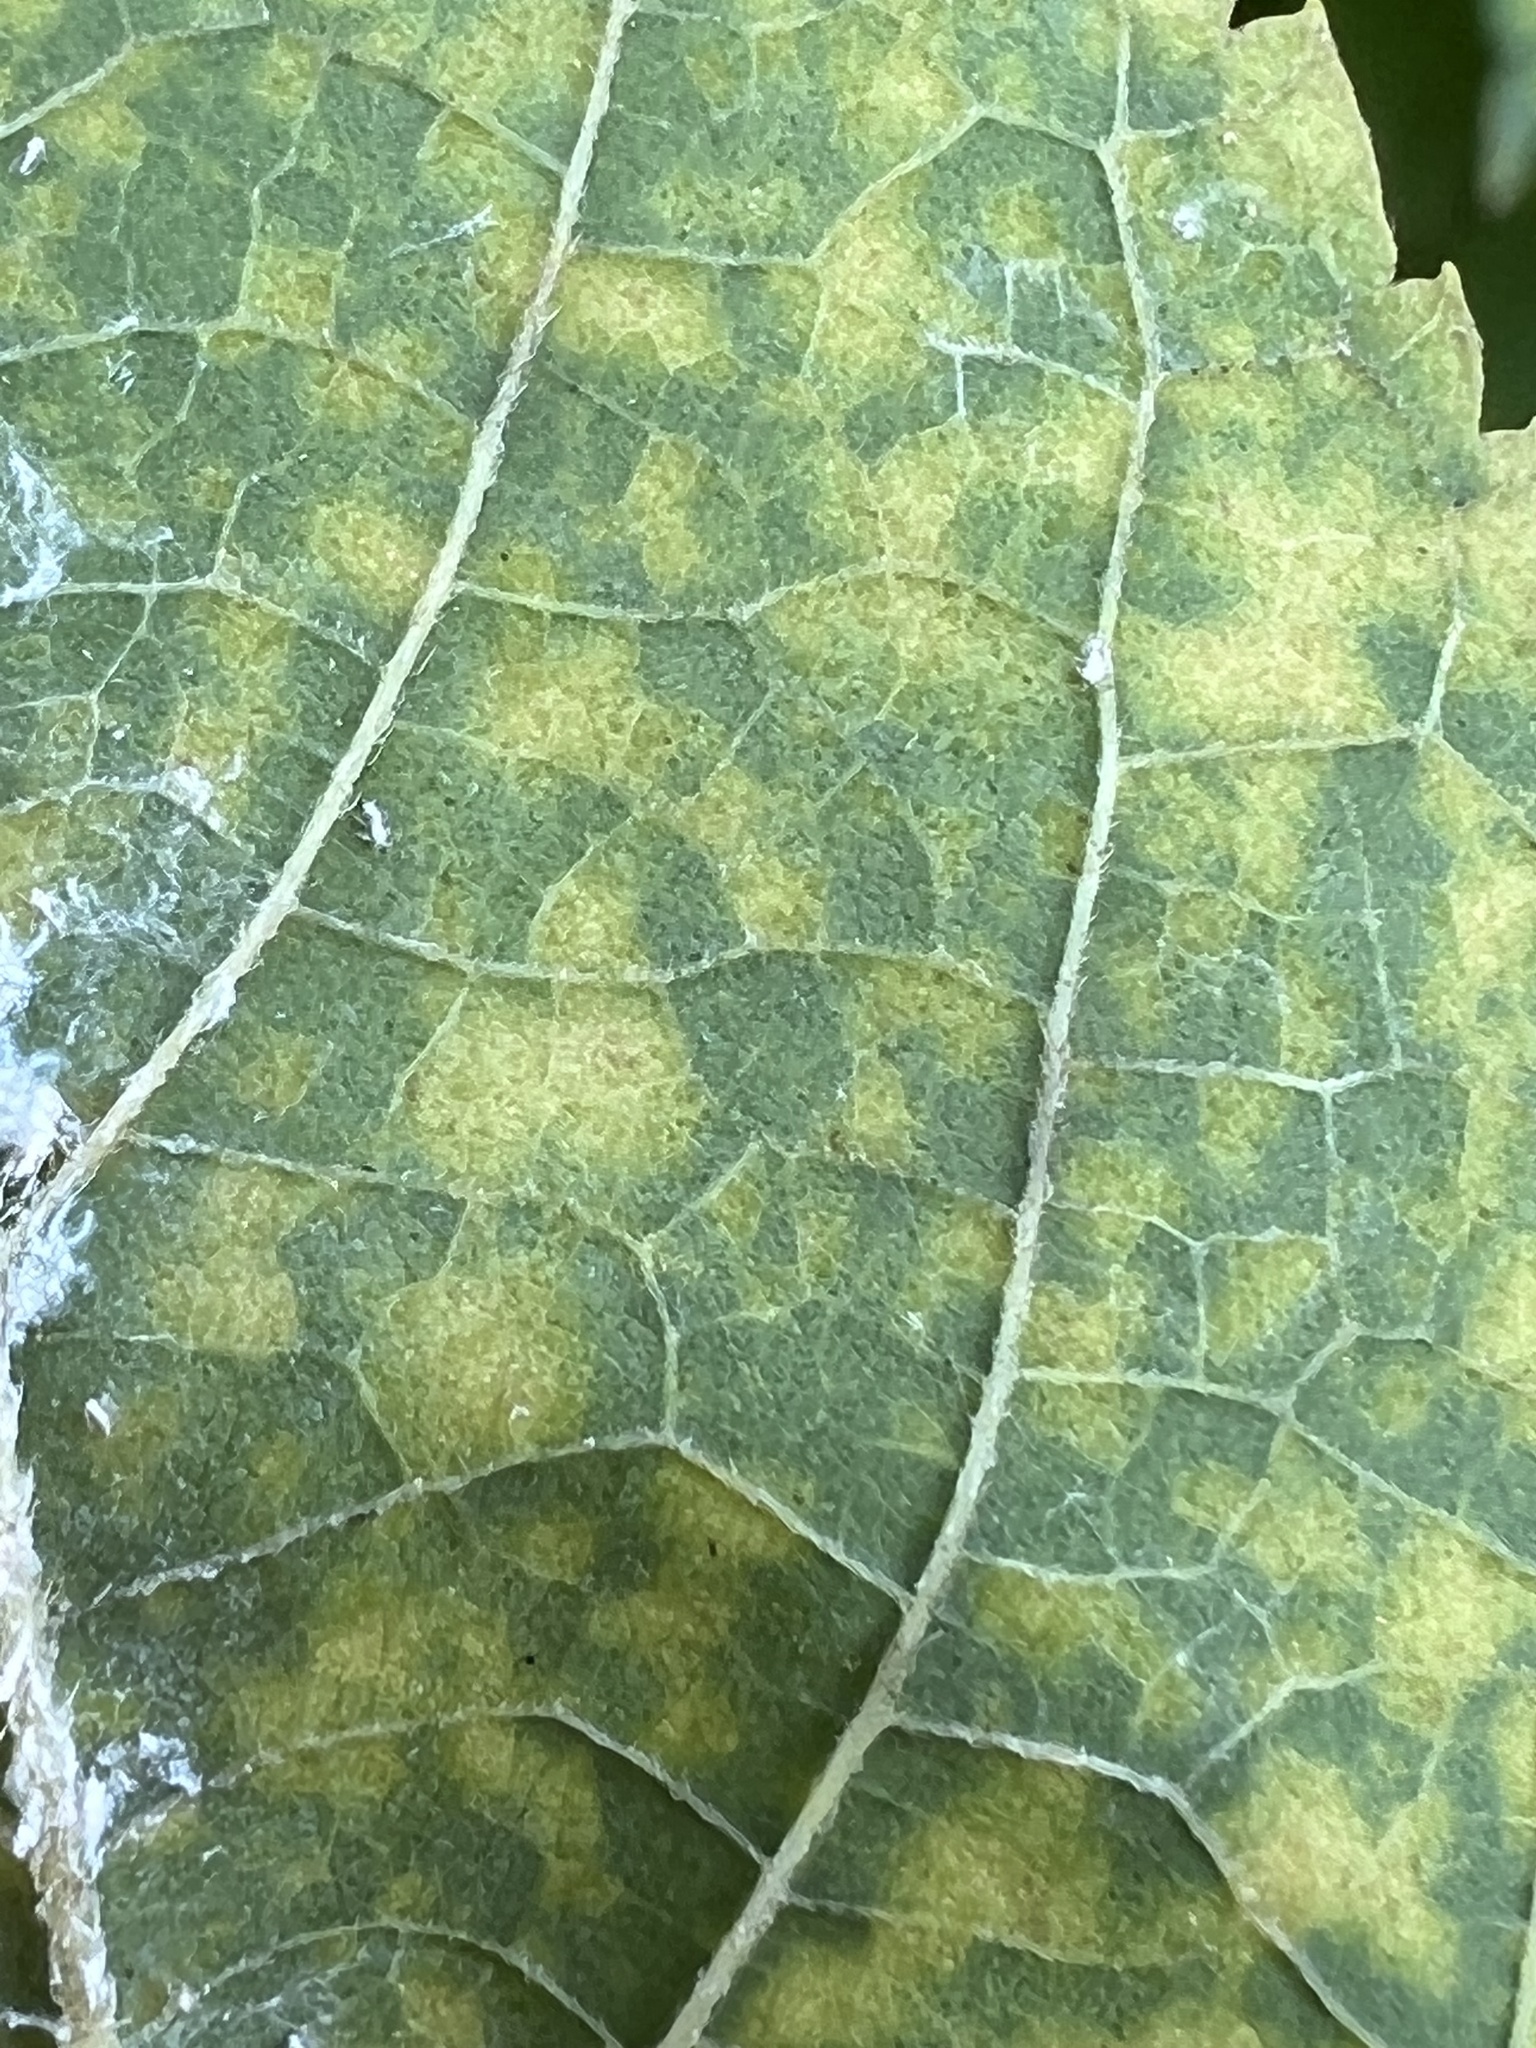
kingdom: Viruses
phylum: Kitrinoviricota
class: Alsuviricetes
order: Martellivirales
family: Closteroviridae
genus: Ampelovirus
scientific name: Ampelovirus
